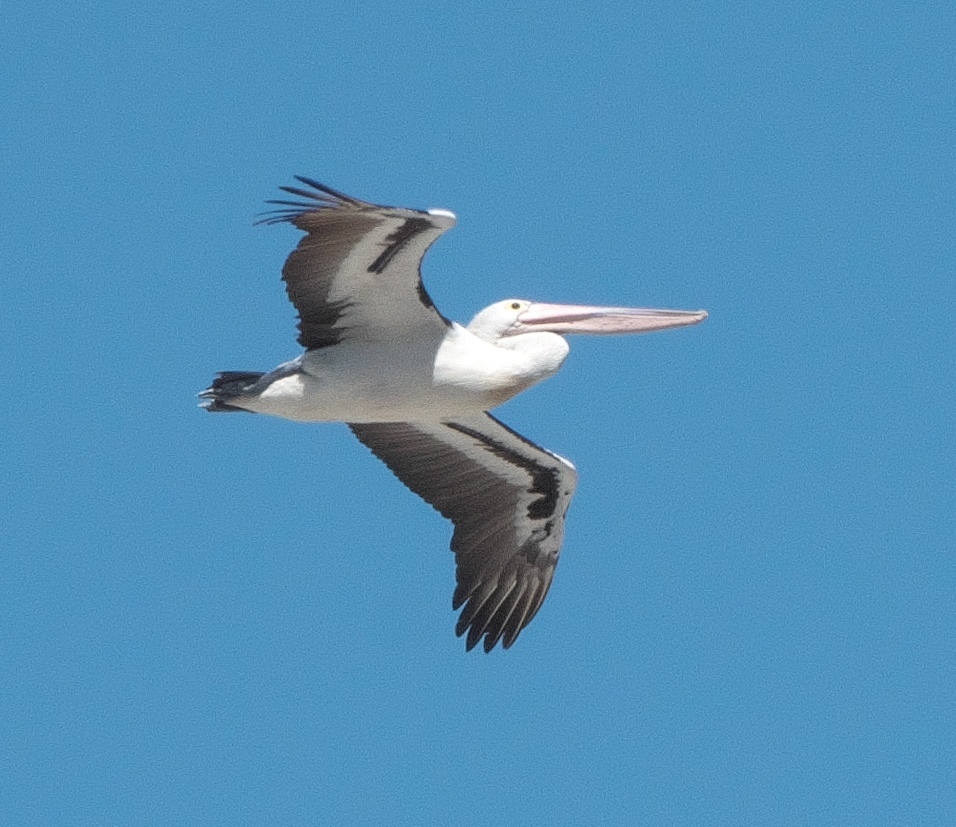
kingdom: Animalia
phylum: Chordata
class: Aves
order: Pelecaniformes
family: Pelecanidae
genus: Pelecanus
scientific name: Pelecanus conspicillatus
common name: Australian pelican
